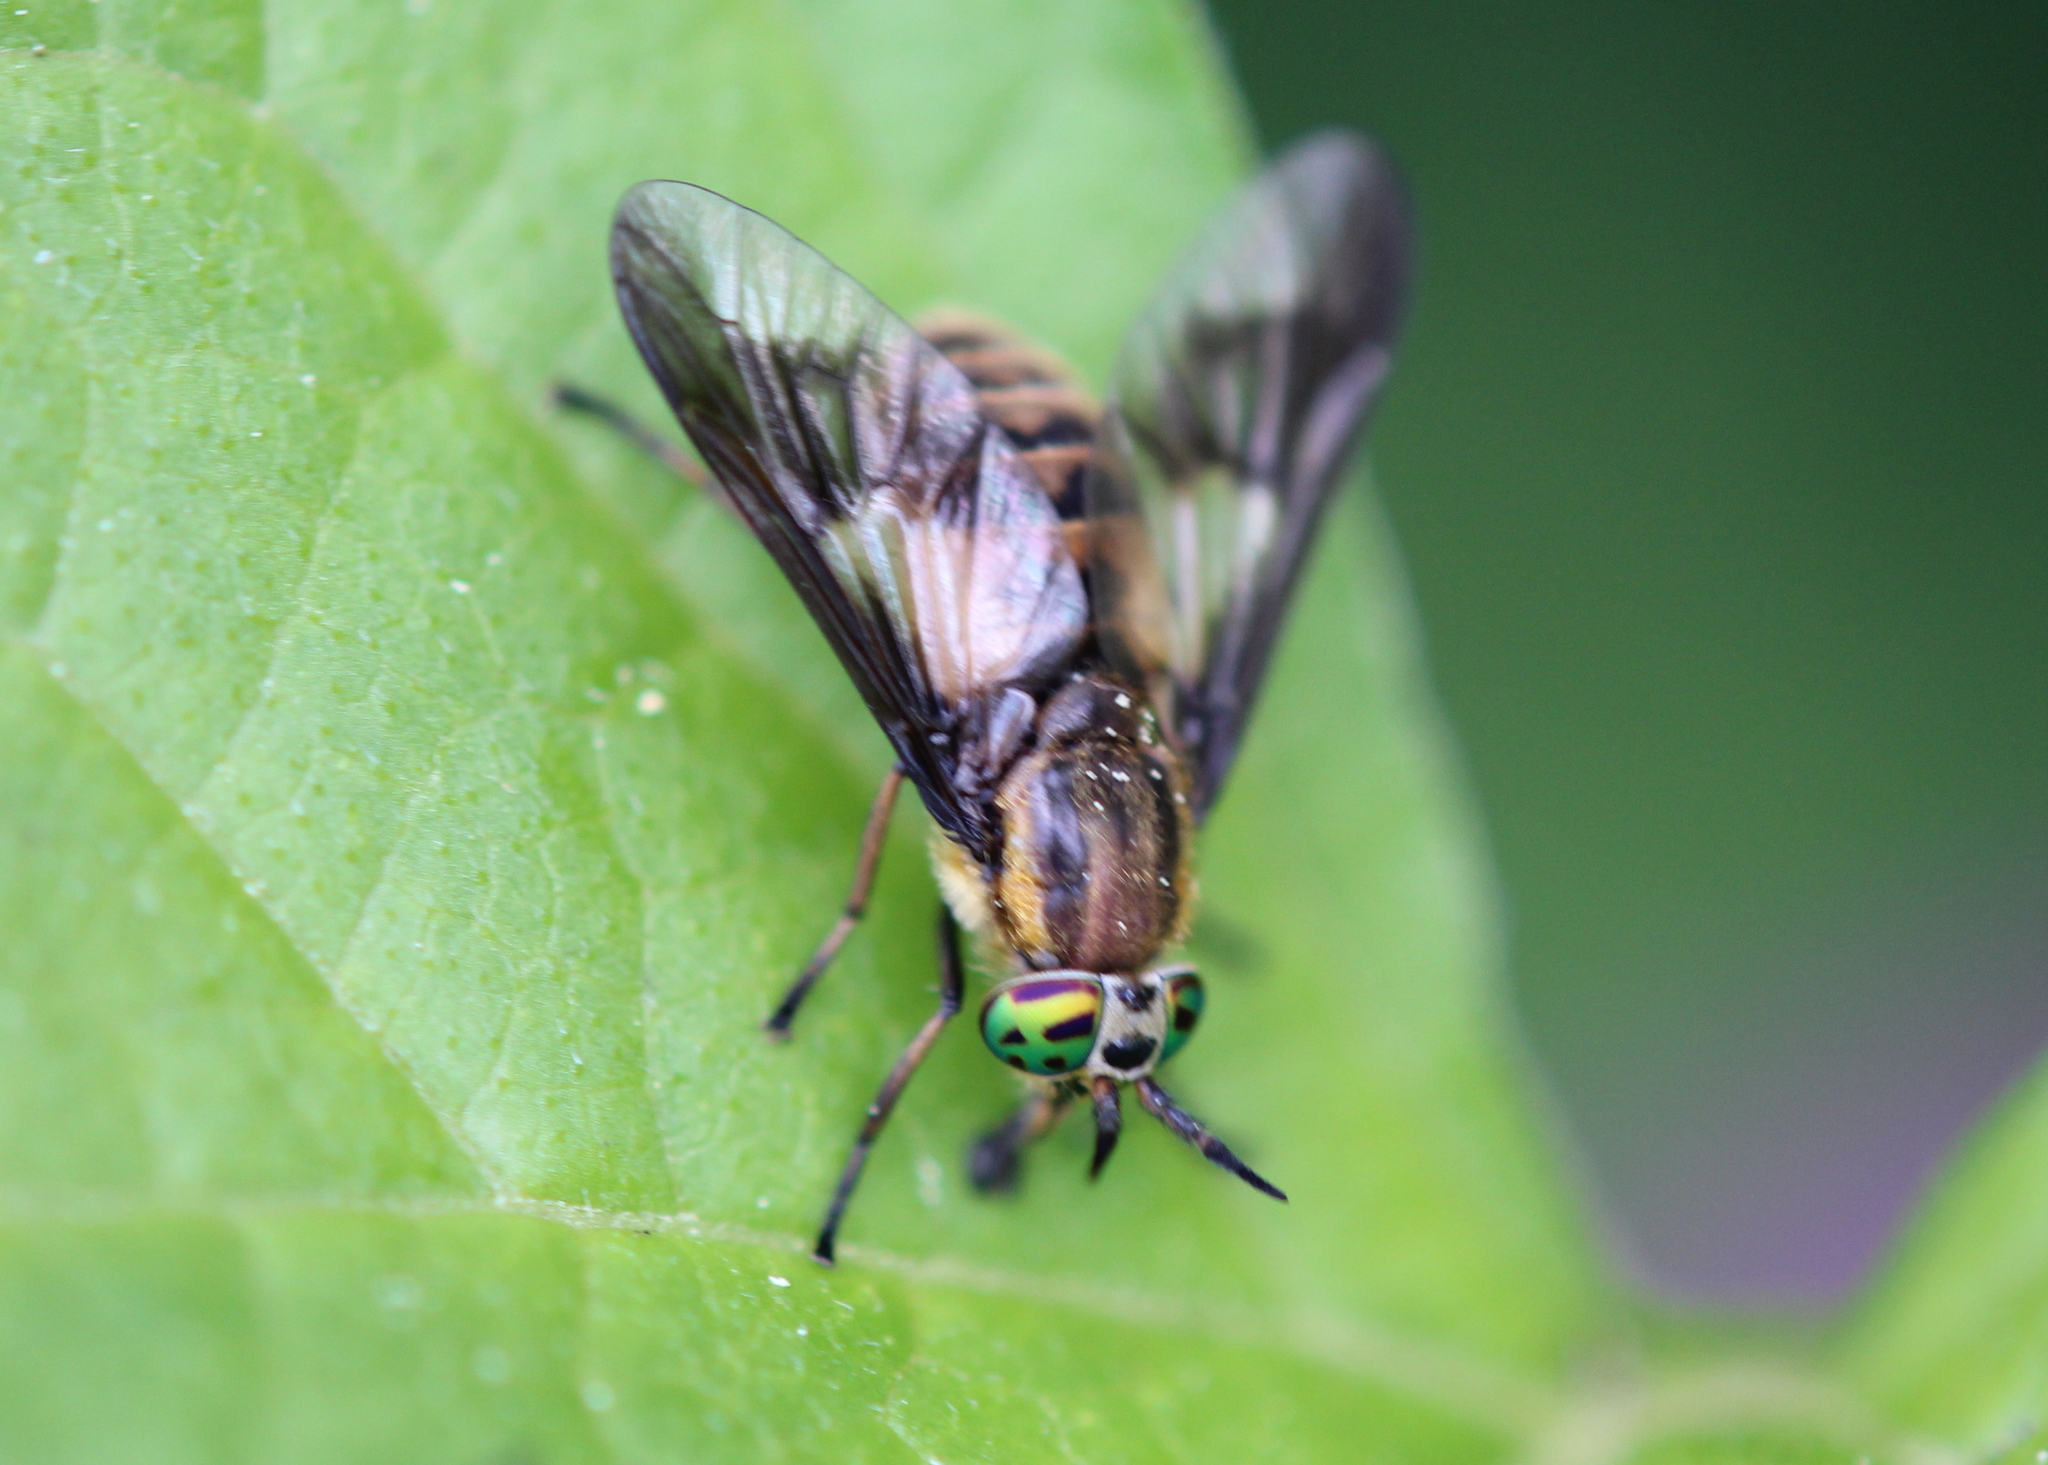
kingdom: Animalia
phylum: Arthropoda
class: Insecta
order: Diptera
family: Tabanidae
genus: Chrysops
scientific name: Chrysops frigidus
